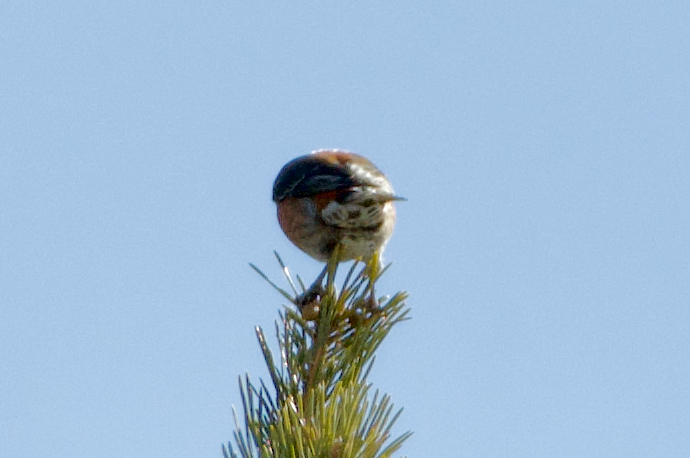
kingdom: Animalia
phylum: Chordata
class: Aves
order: Passeriformes
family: Fringillidae
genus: Loxia
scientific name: Loxia curvirostra
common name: Red crossbill
